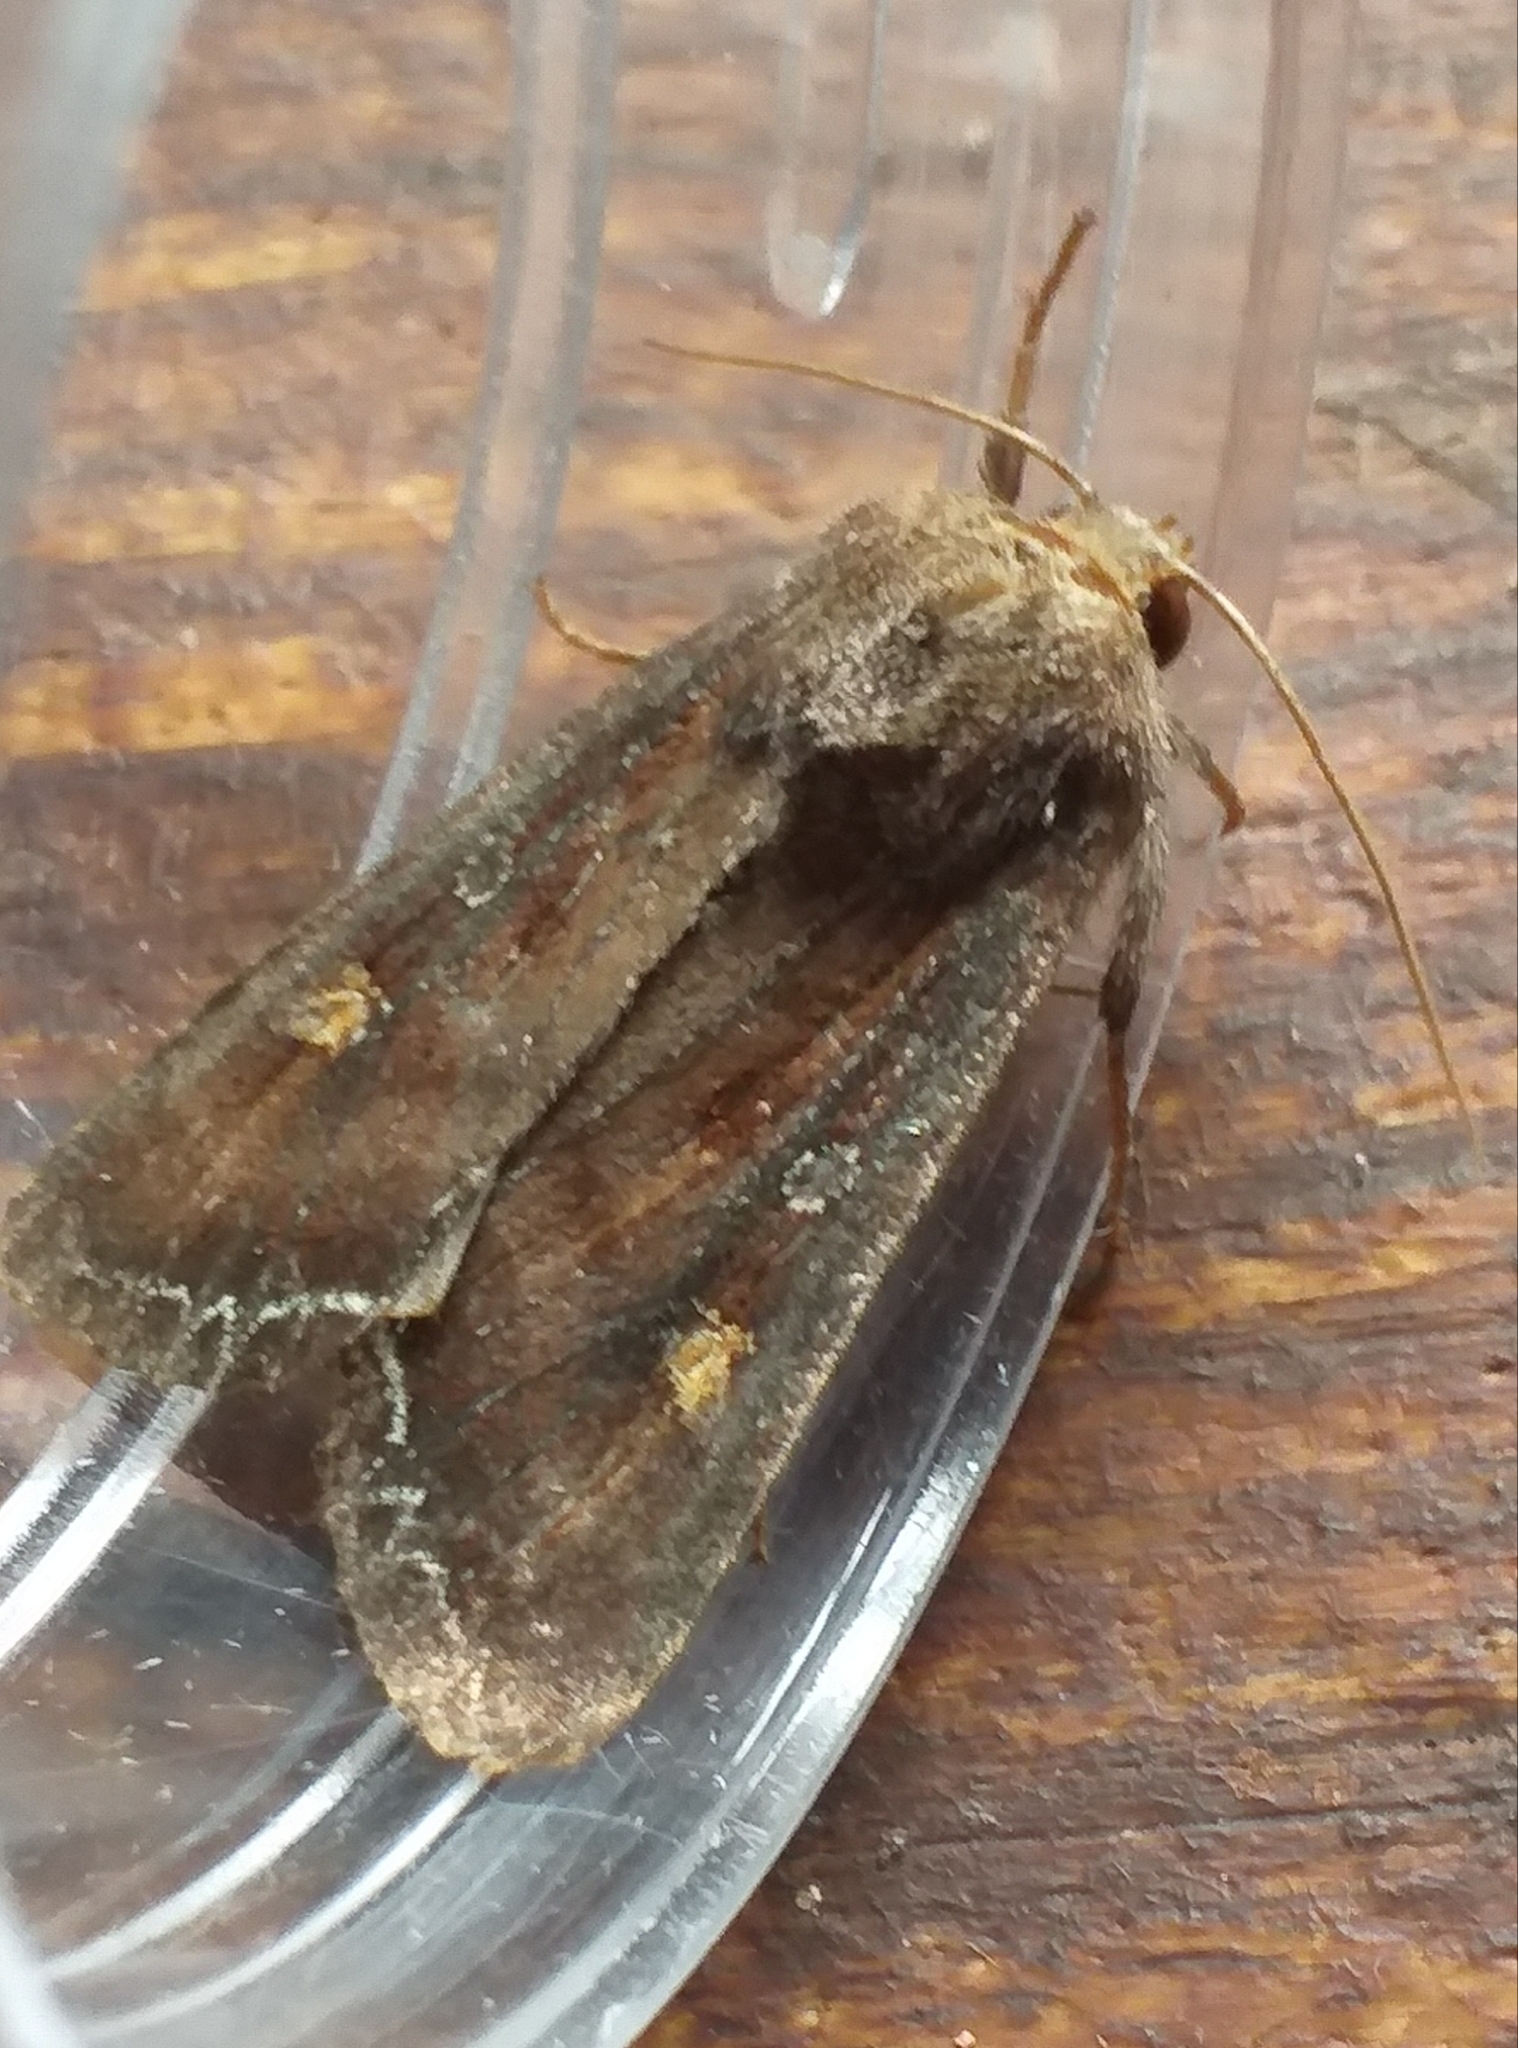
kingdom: Animalia
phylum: Arthropoda
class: Insecta
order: Lepidoptera
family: Noctuidae
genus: Lacanobia
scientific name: Lacanobia oleracea
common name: Bright-line brown-eye
